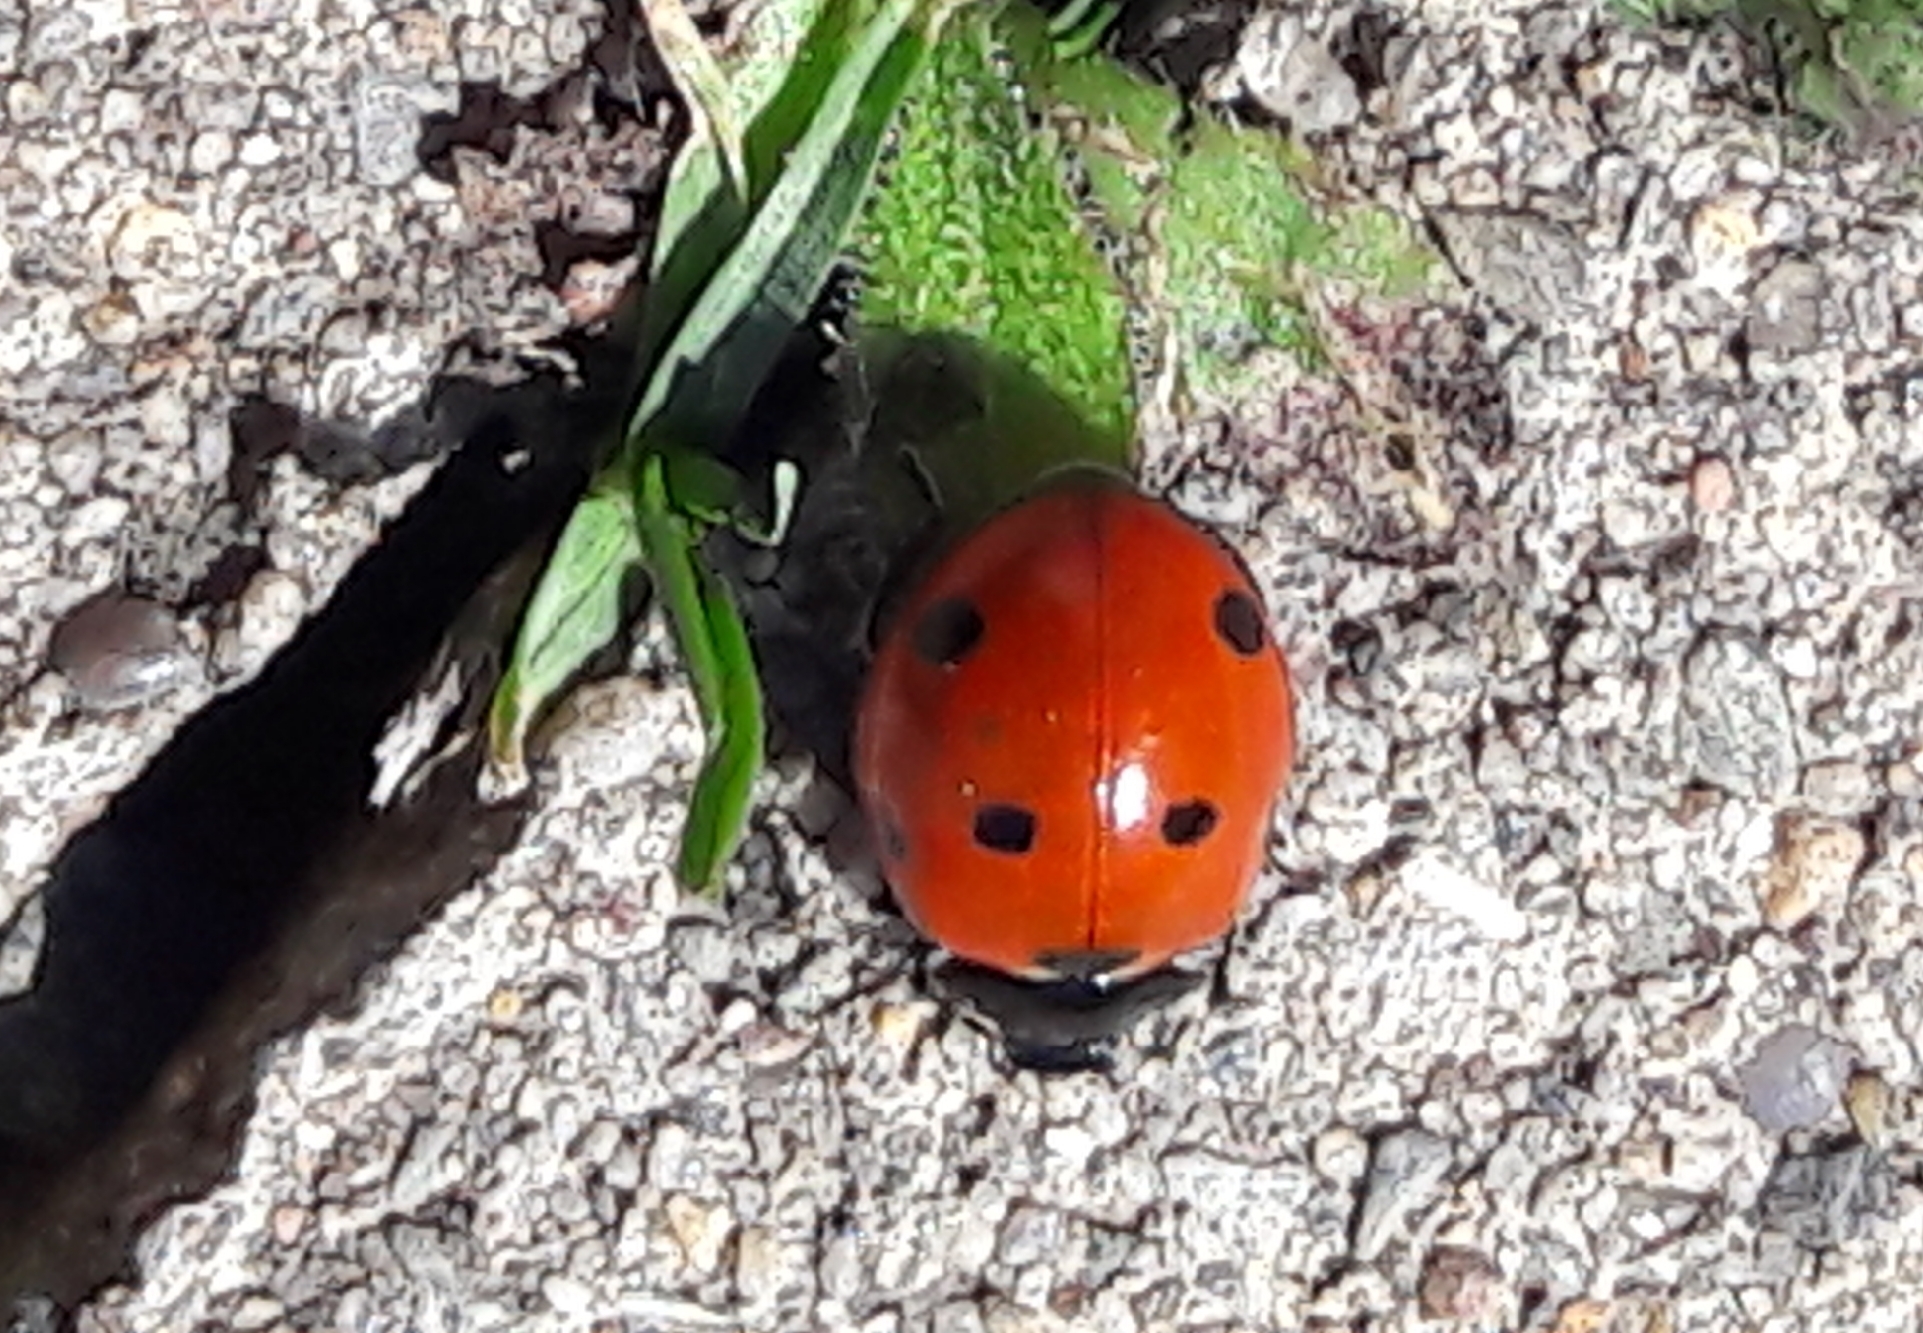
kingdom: Animalia
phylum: Arthropoda
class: Insecta
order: Coleoptera
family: Coccinellidae
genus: Coccinella
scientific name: Coccinella septempunctata
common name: Sevenspotted lady beetle
